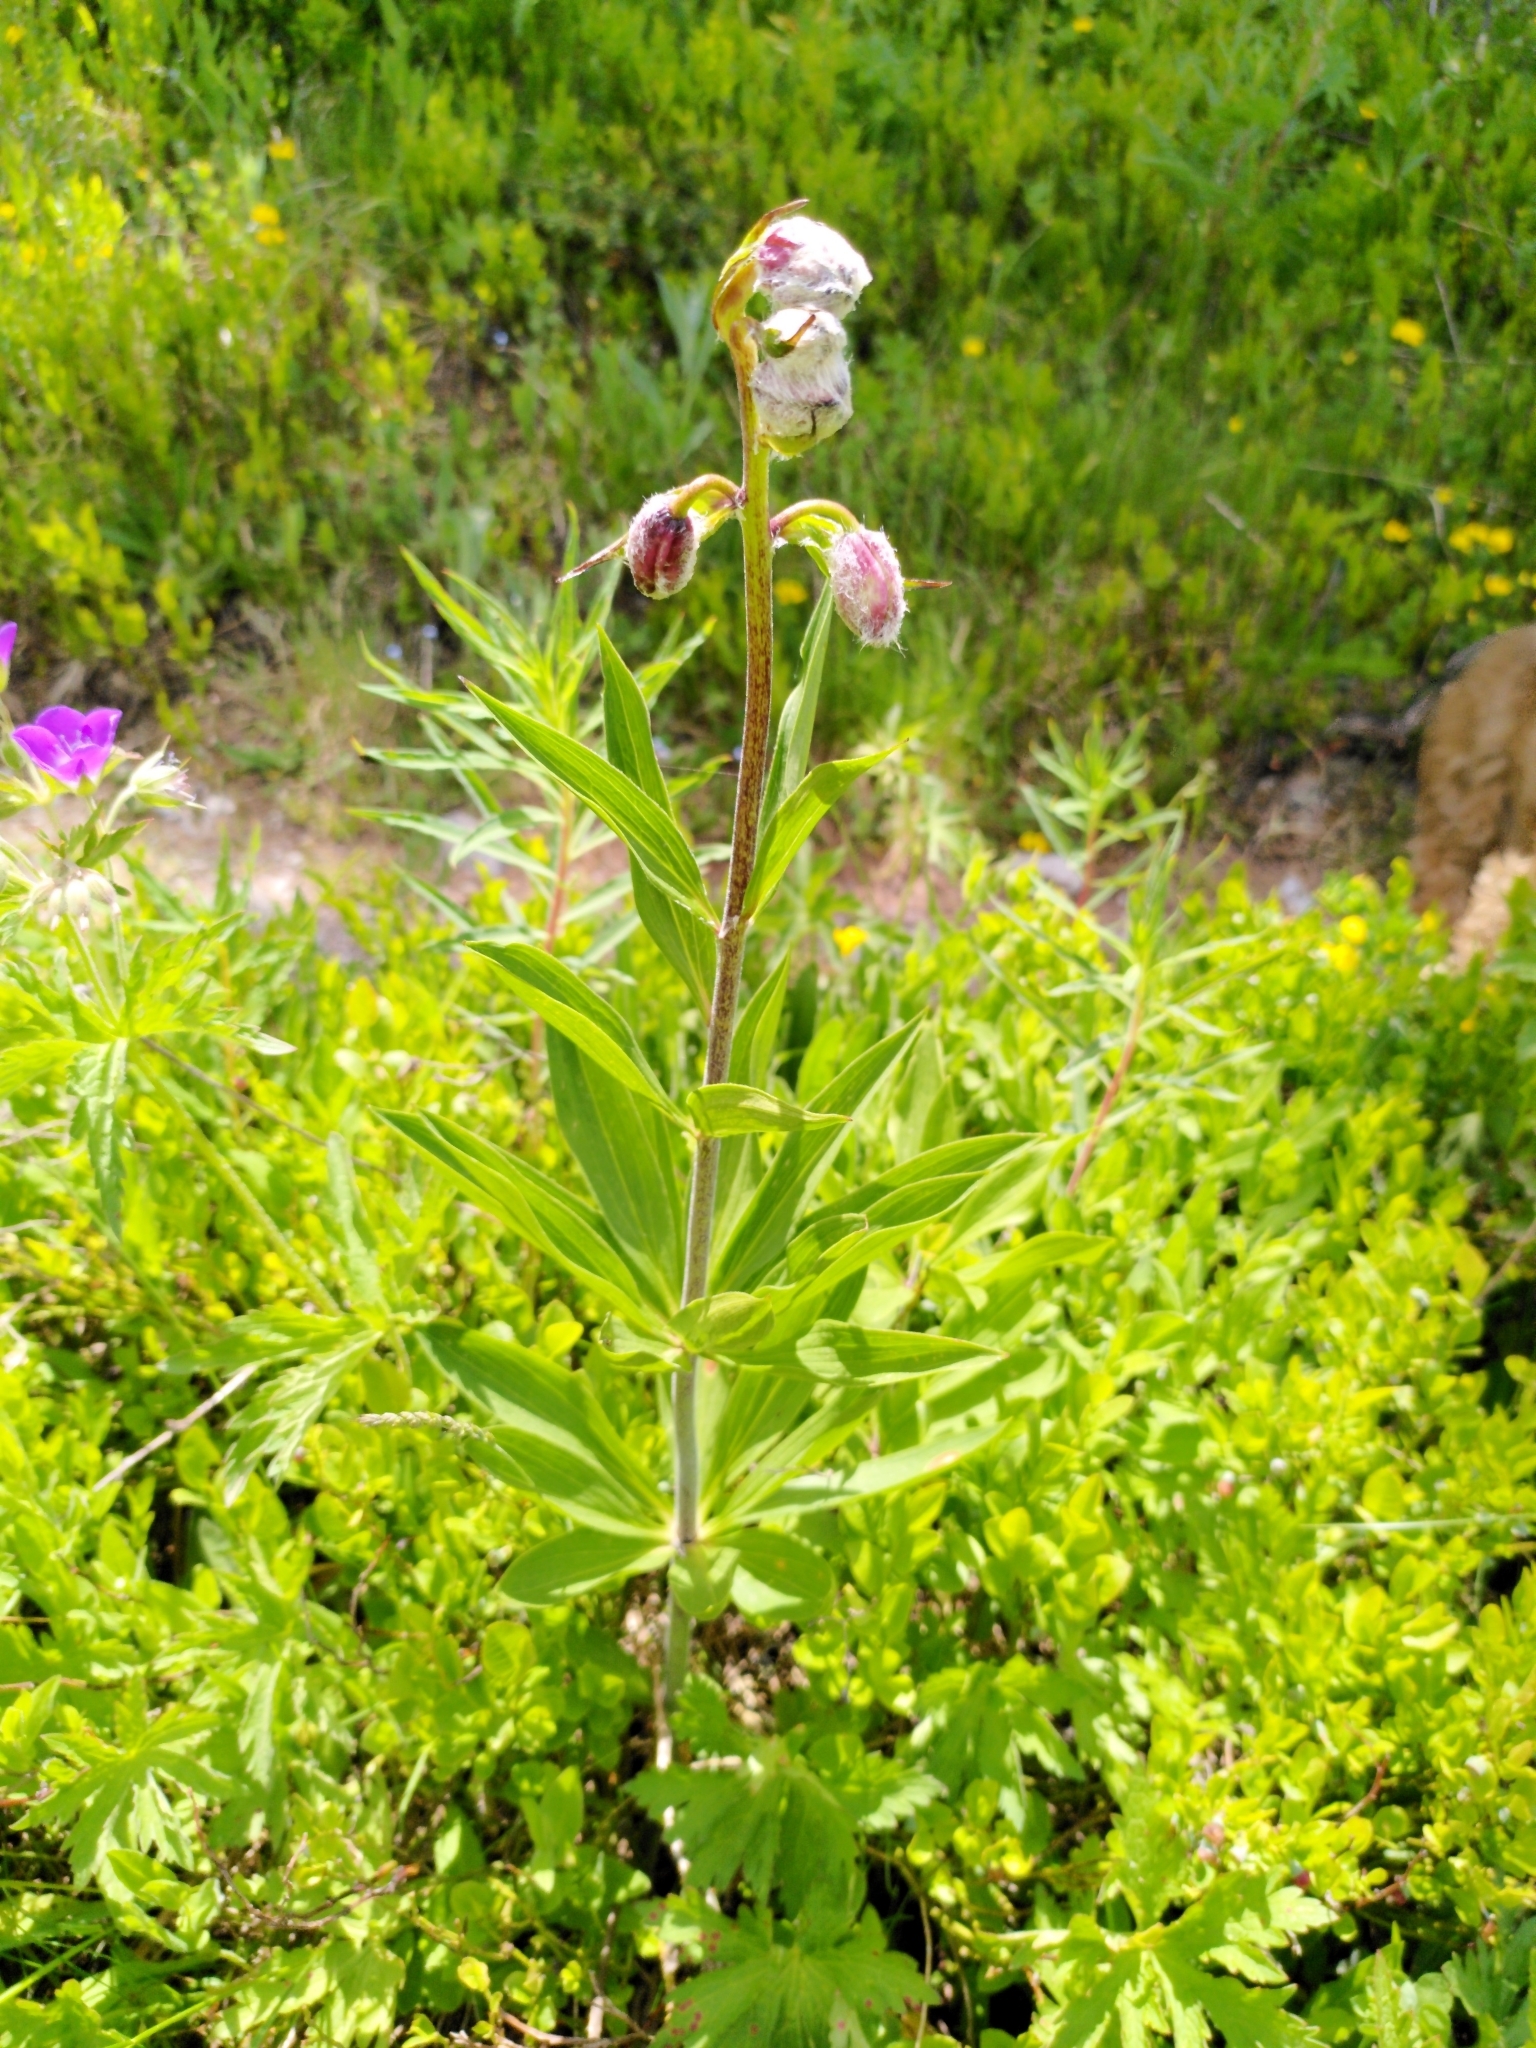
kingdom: Plantae
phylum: Tracheophyta
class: Liliopsida
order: Liliales
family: Liliaceae
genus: Lilium
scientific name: Lilium martagon
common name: Martagon lily
